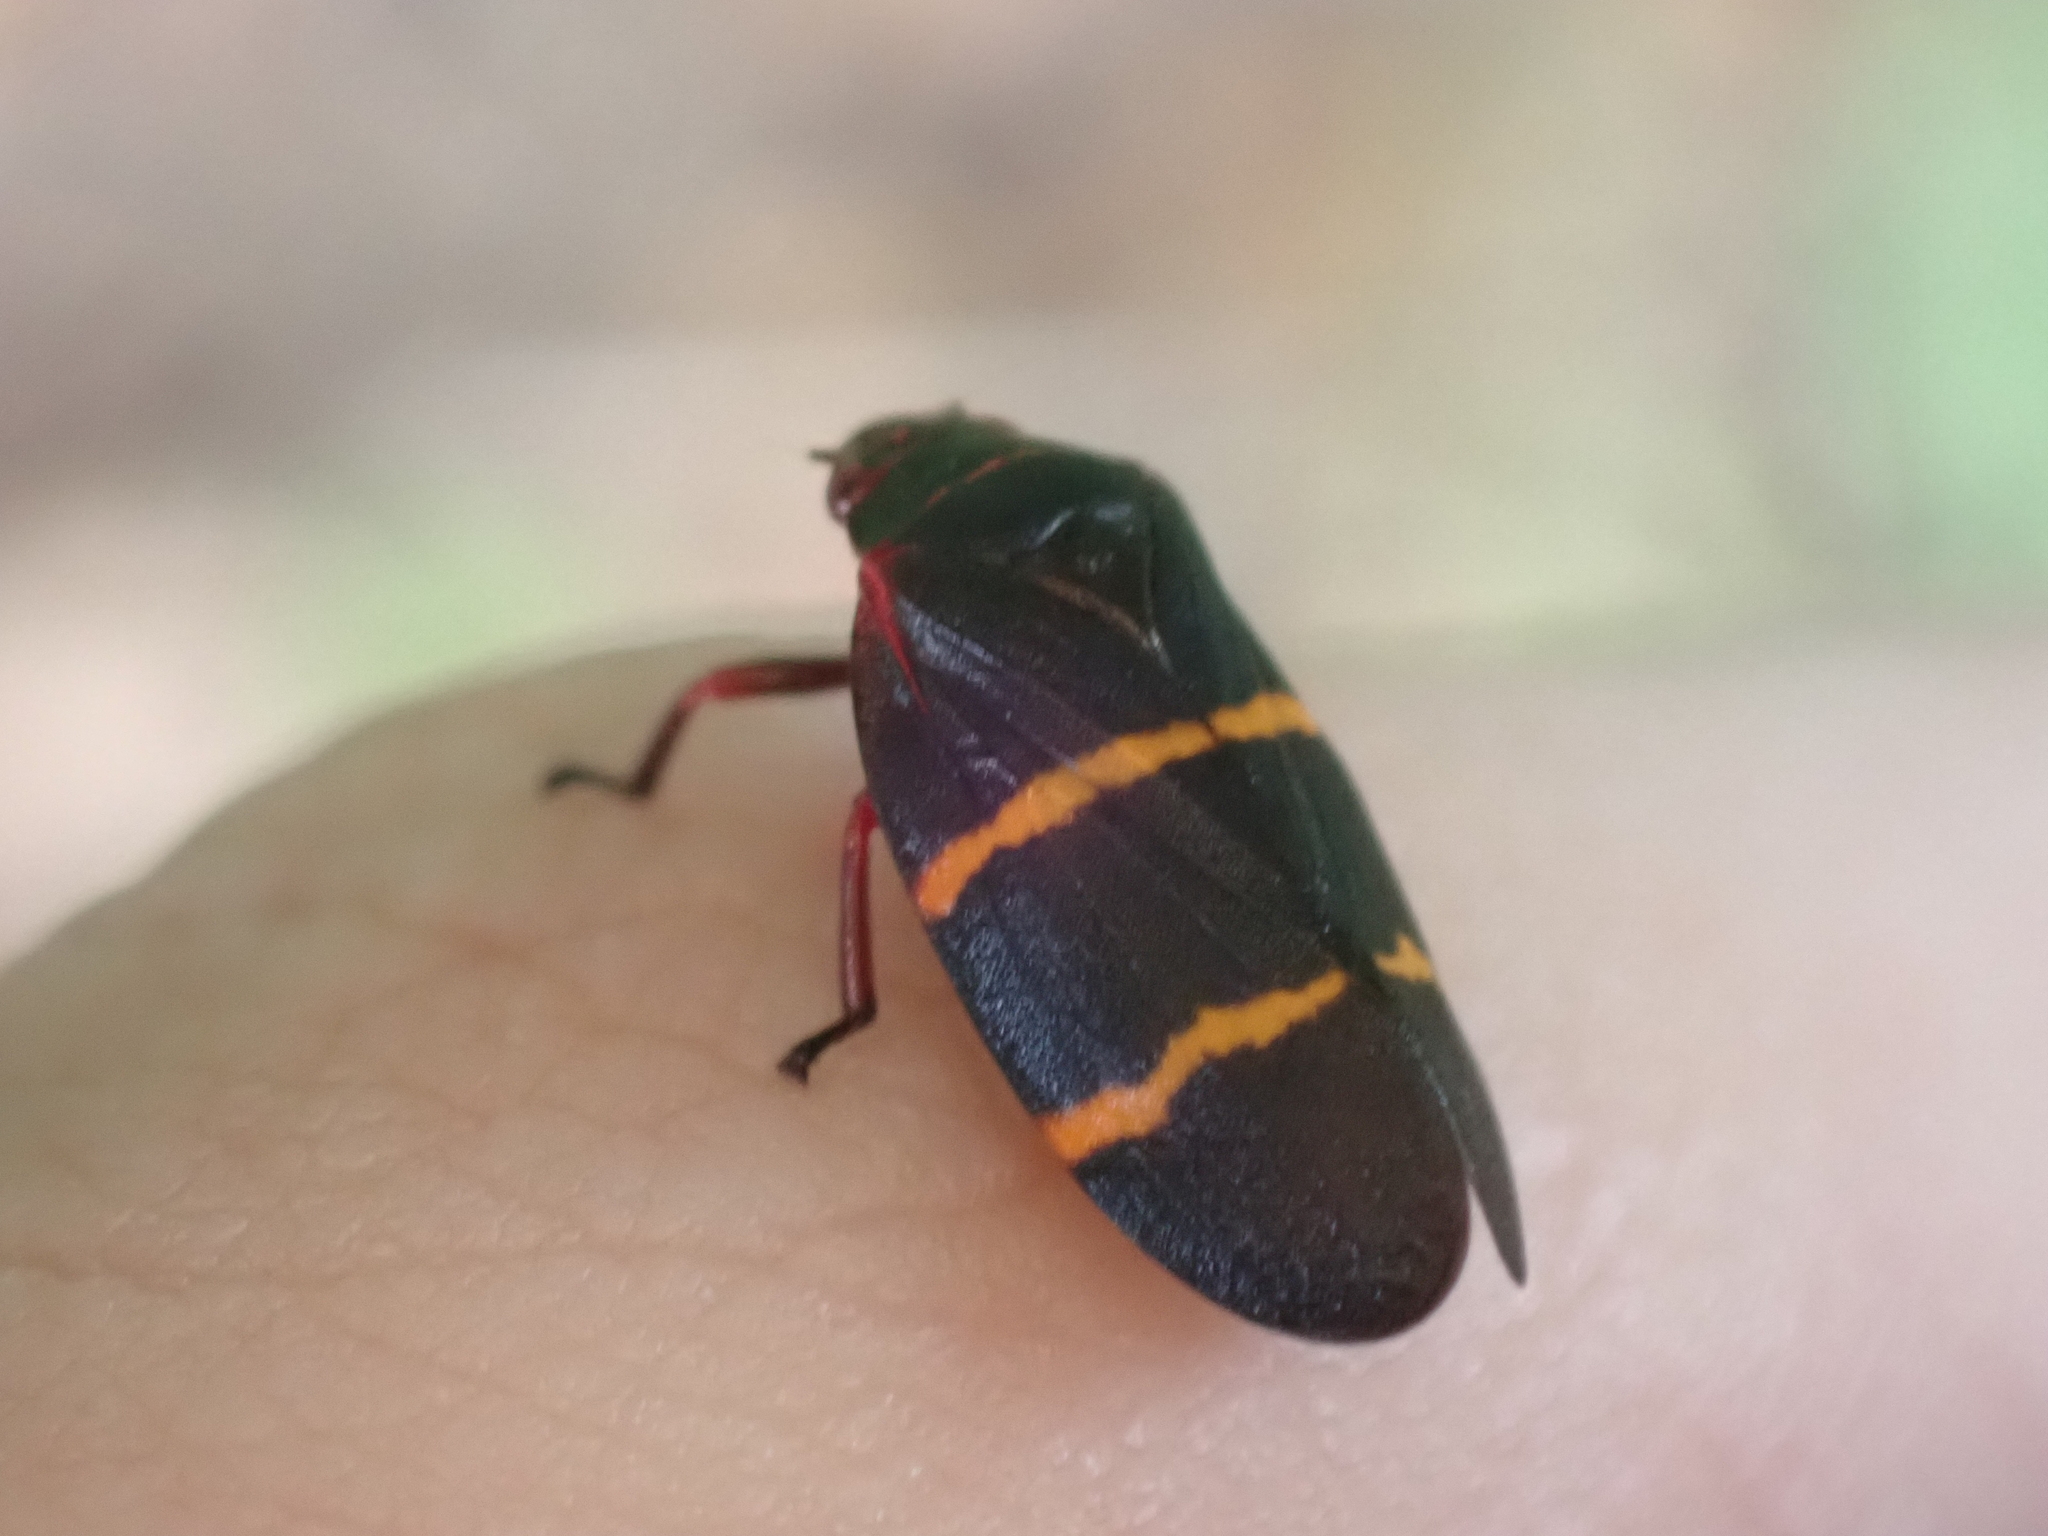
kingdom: Animalia
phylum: Arthropoda
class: Insecta
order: Hemiptera
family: Cercopidae
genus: Prosapia
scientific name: Prosapia bicincta
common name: Twolined spittlebug
